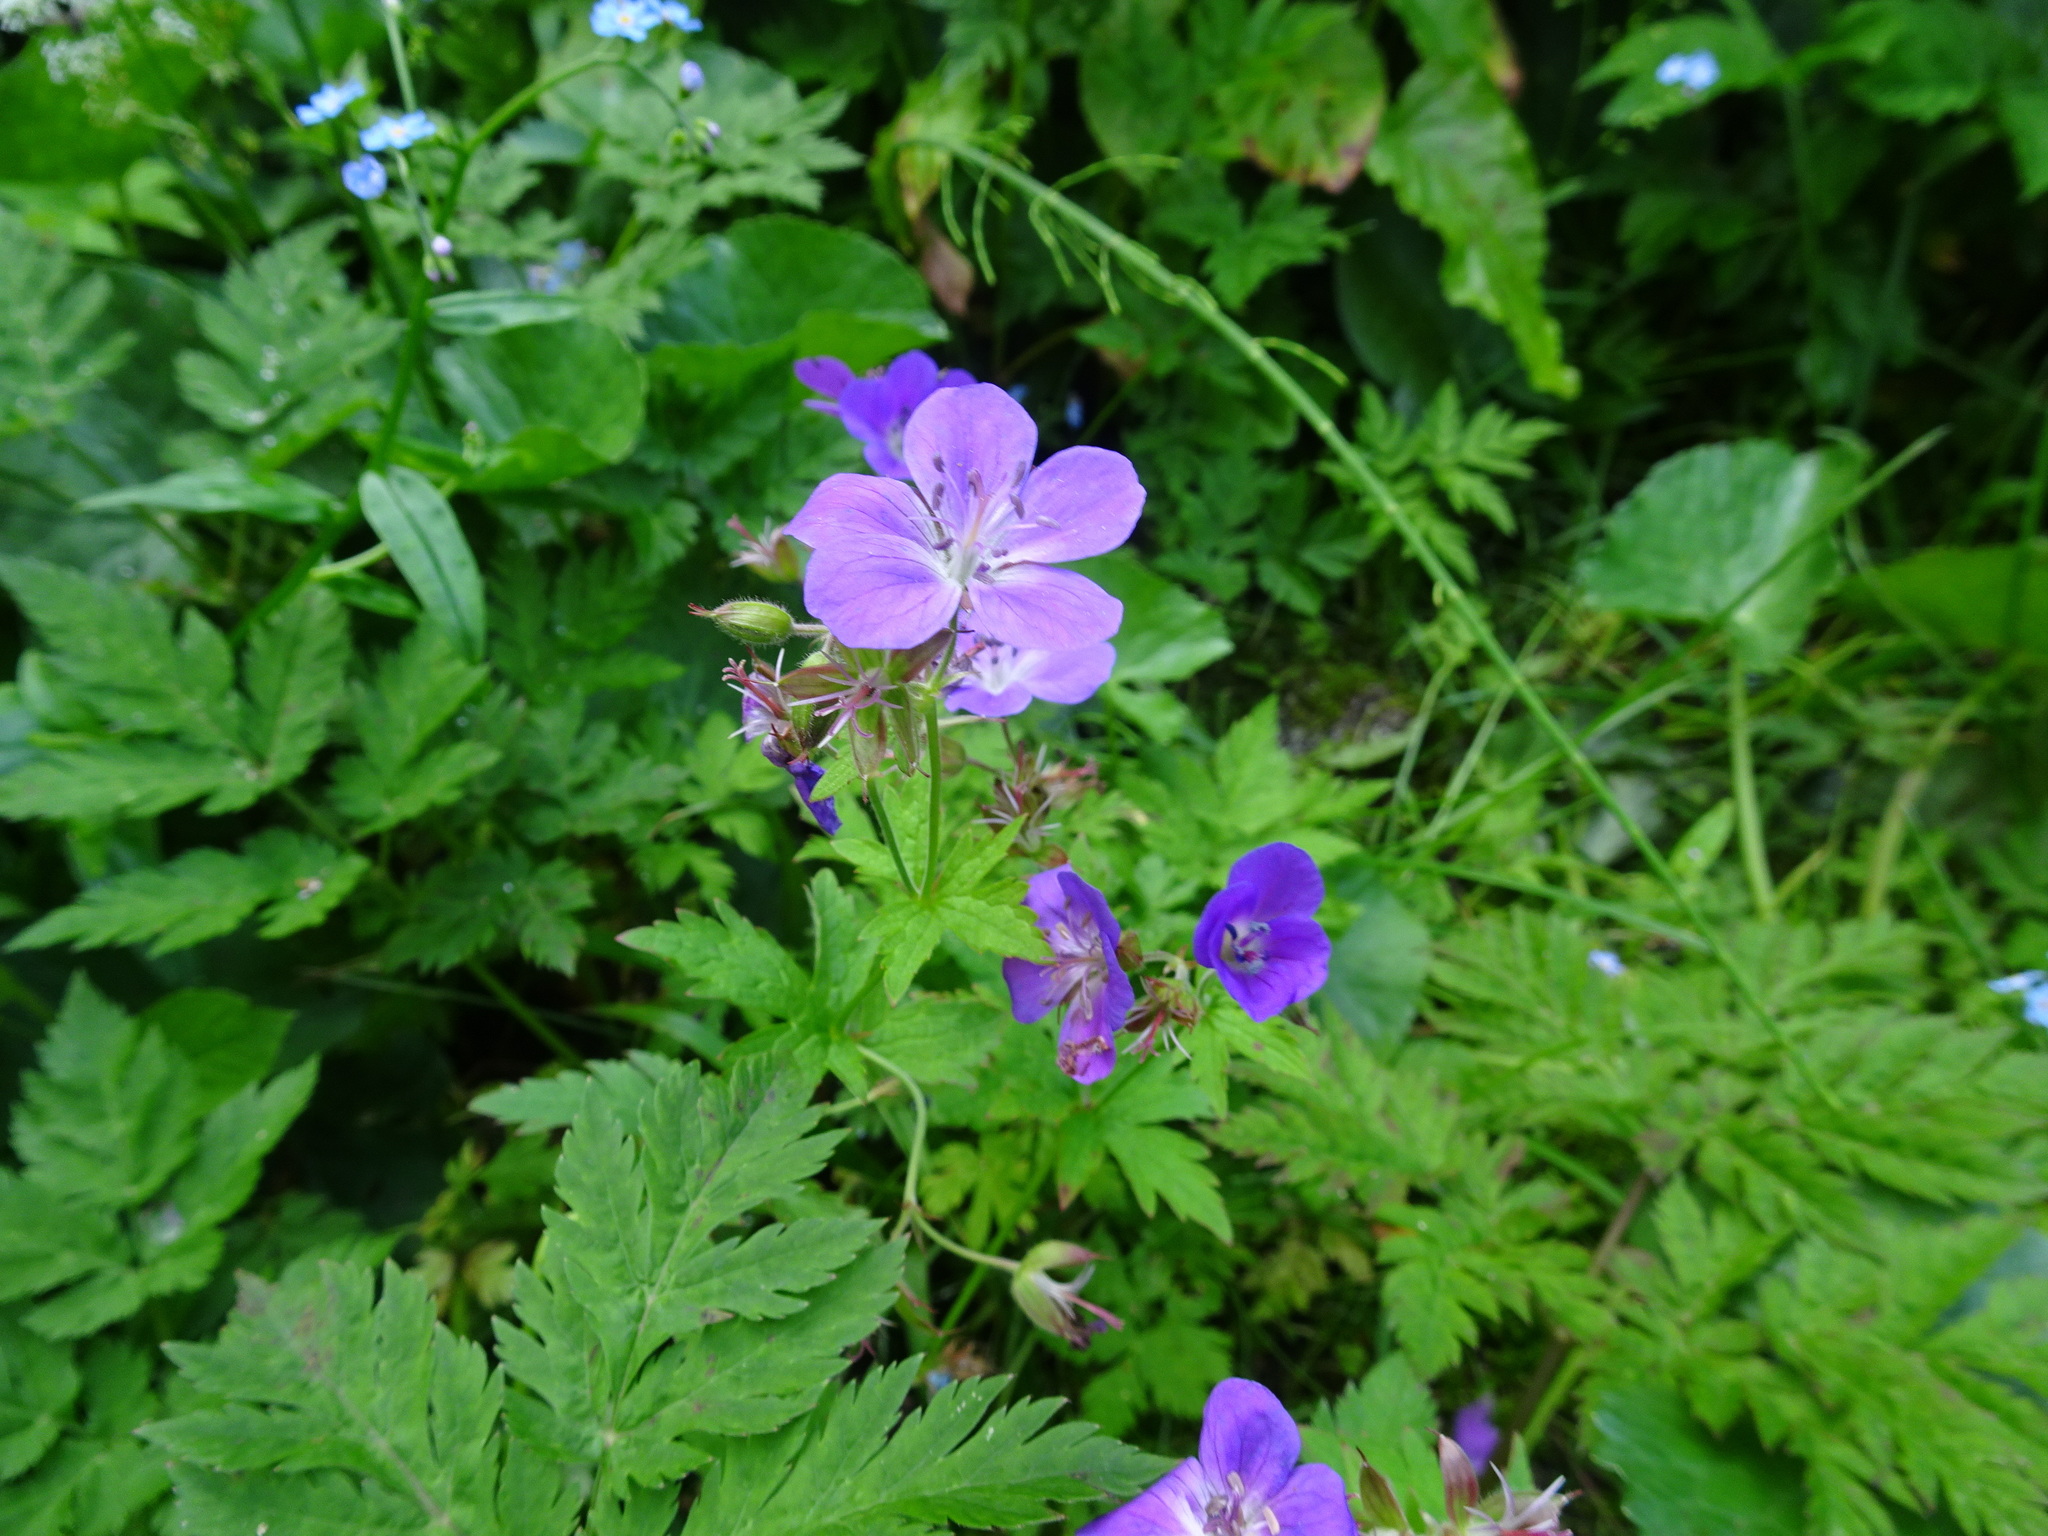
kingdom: Plantae
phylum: Tracheophyta
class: Magnoliopsida
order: Geraniales
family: Geraniaceae
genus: Geranium
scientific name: Geranium sylvaticum
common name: Wood crane's-bill
